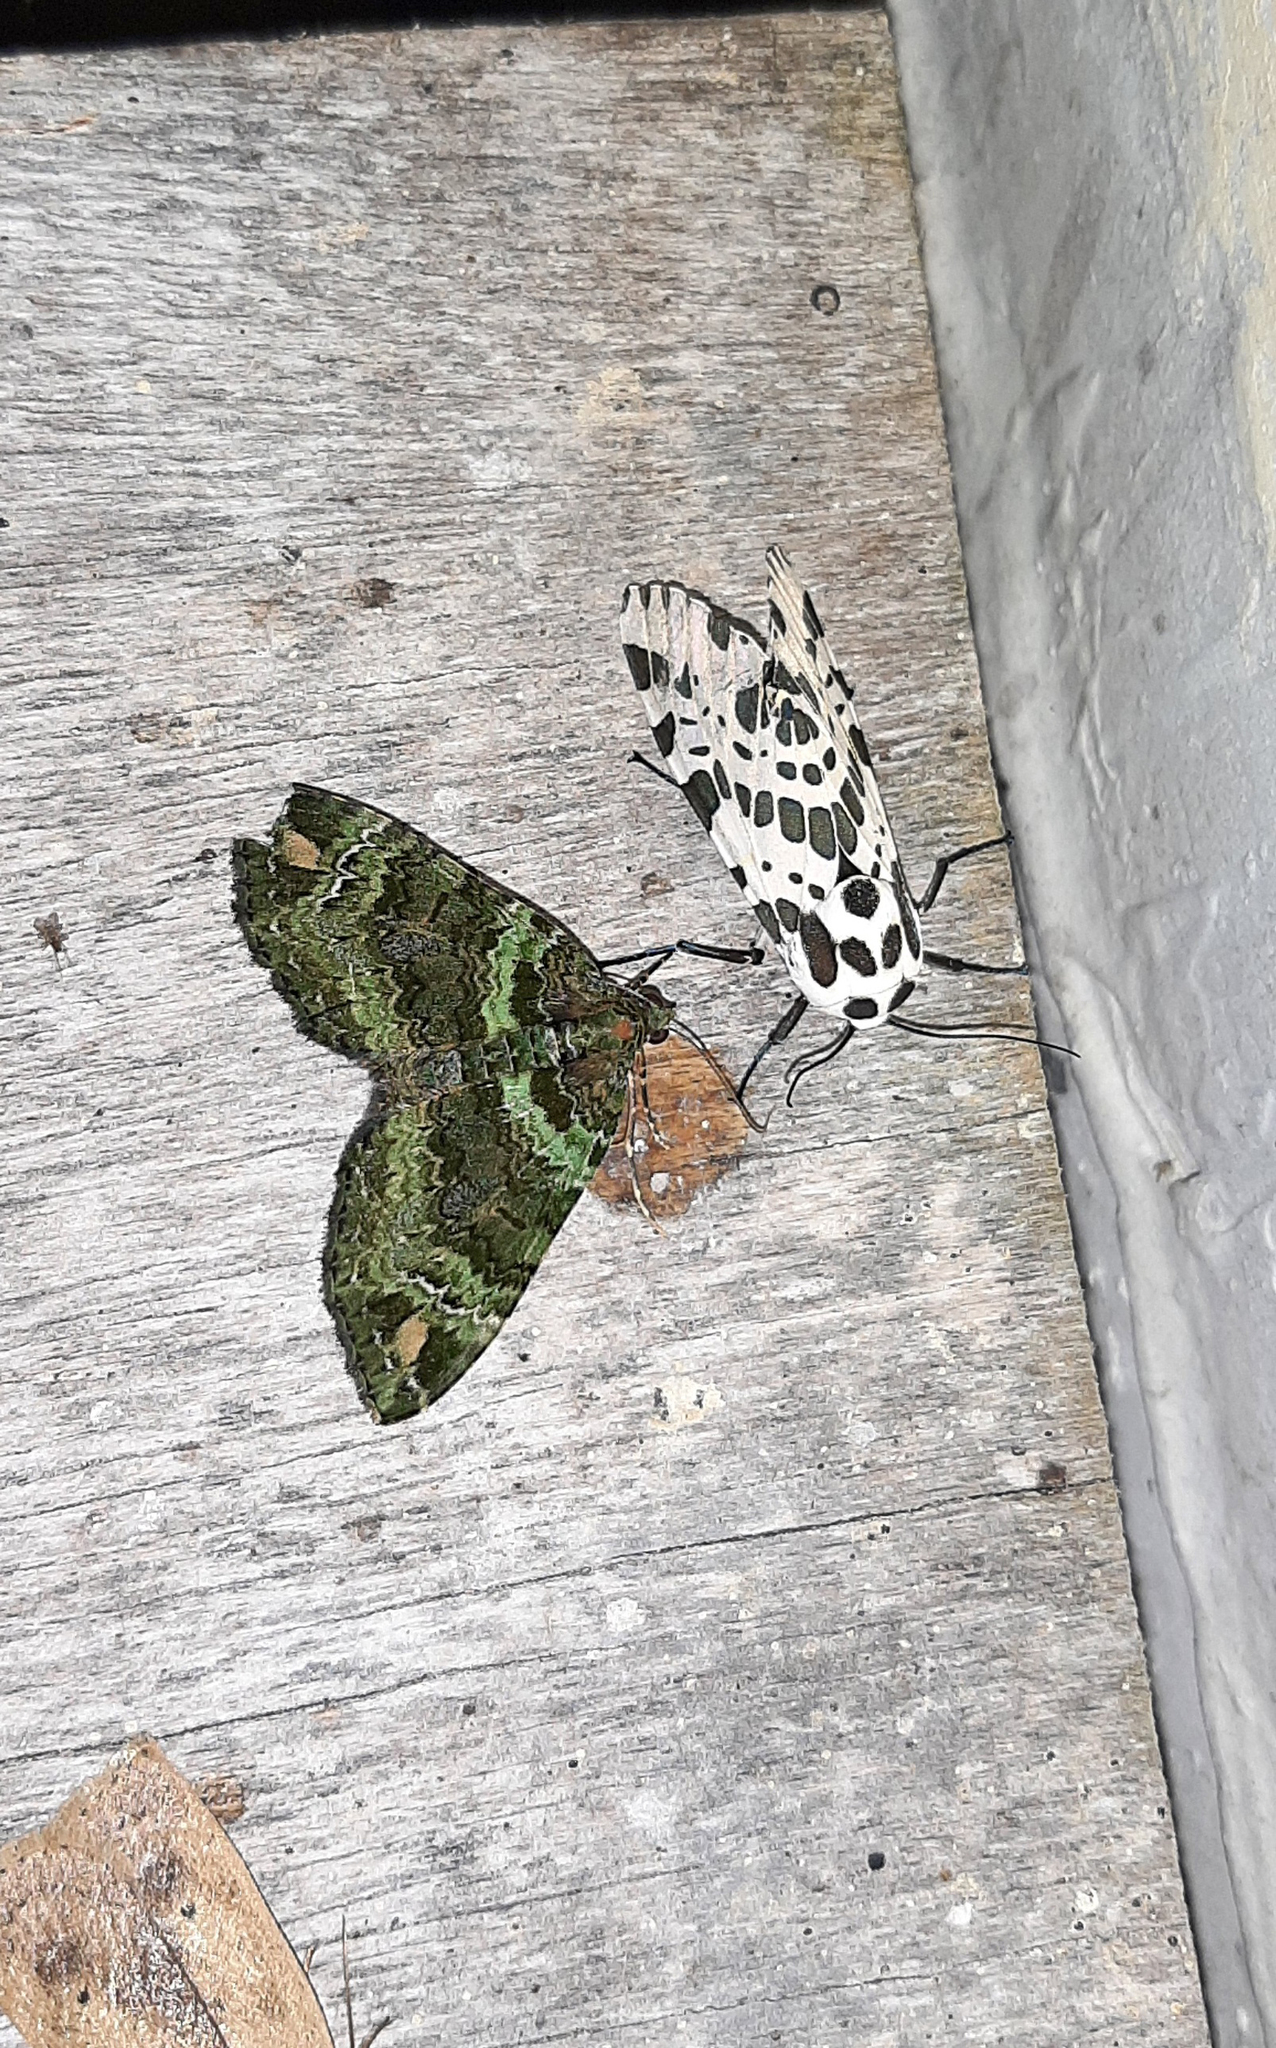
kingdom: Animalia
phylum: Arthropoda
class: Insecta
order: Lepidoptera
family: Erebidae
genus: Hypercompe
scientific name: Hypercompe magdalenae
